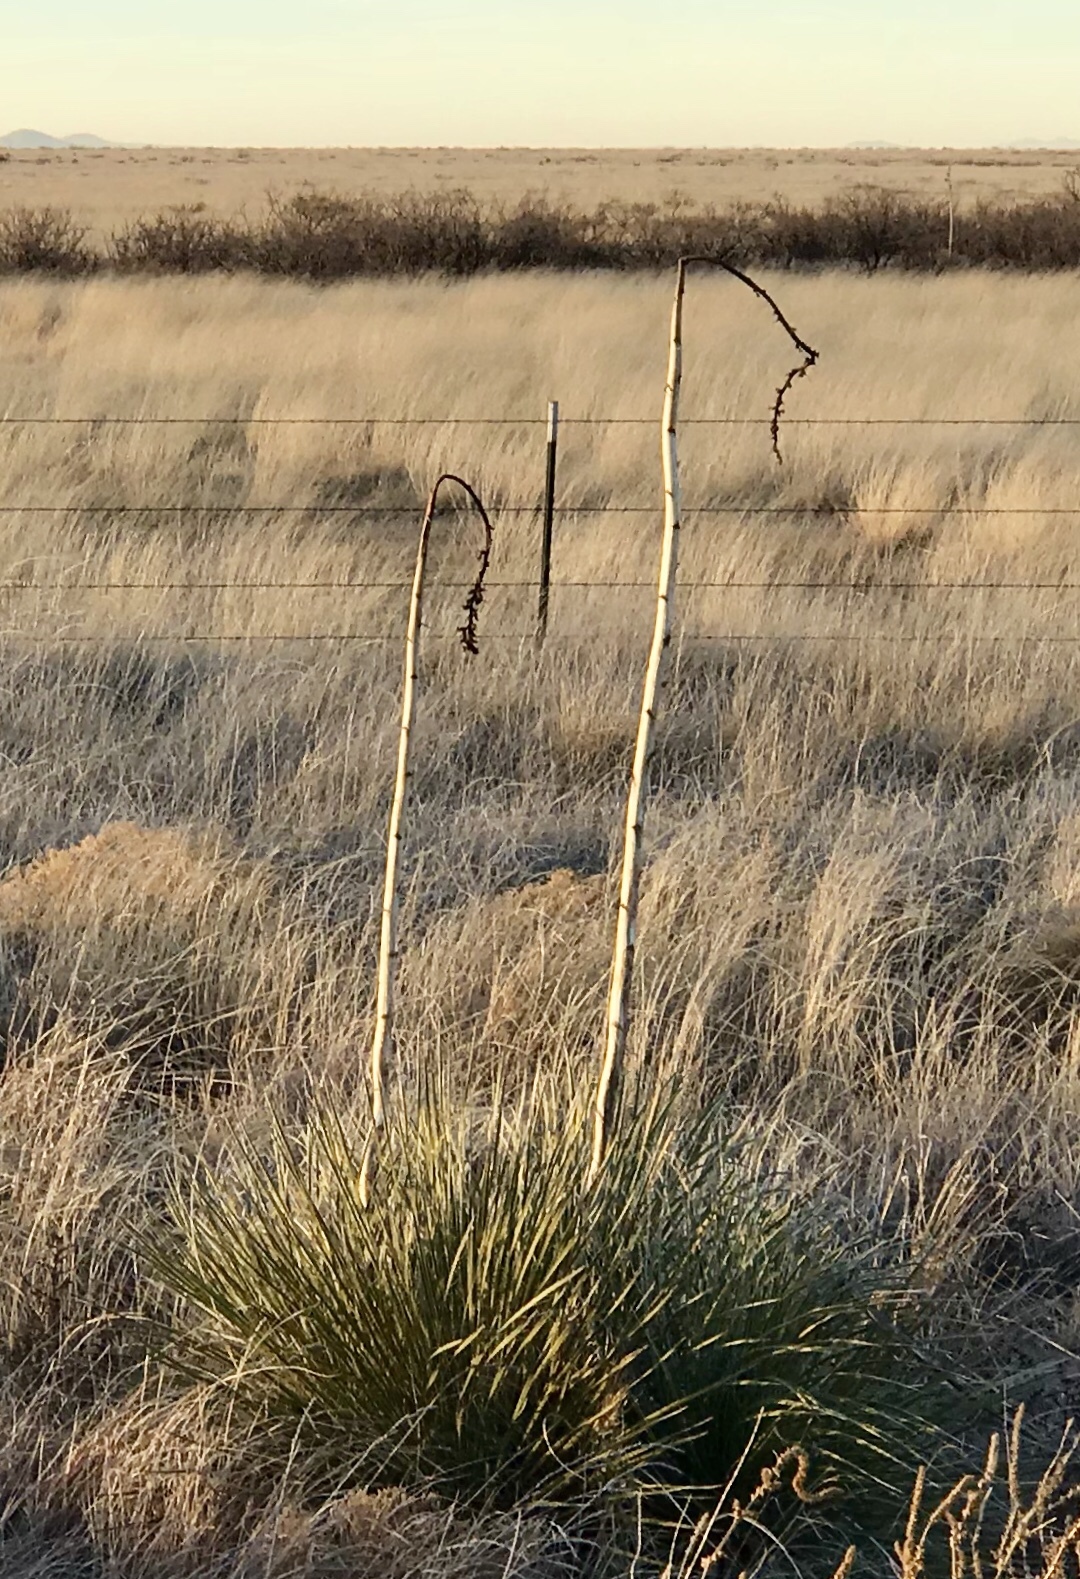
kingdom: Plantae
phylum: Tracheophyta
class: Liliopsida
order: Asparagales
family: Asparagaceae
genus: Yucca
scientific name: Yucca elata
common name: Palmella
